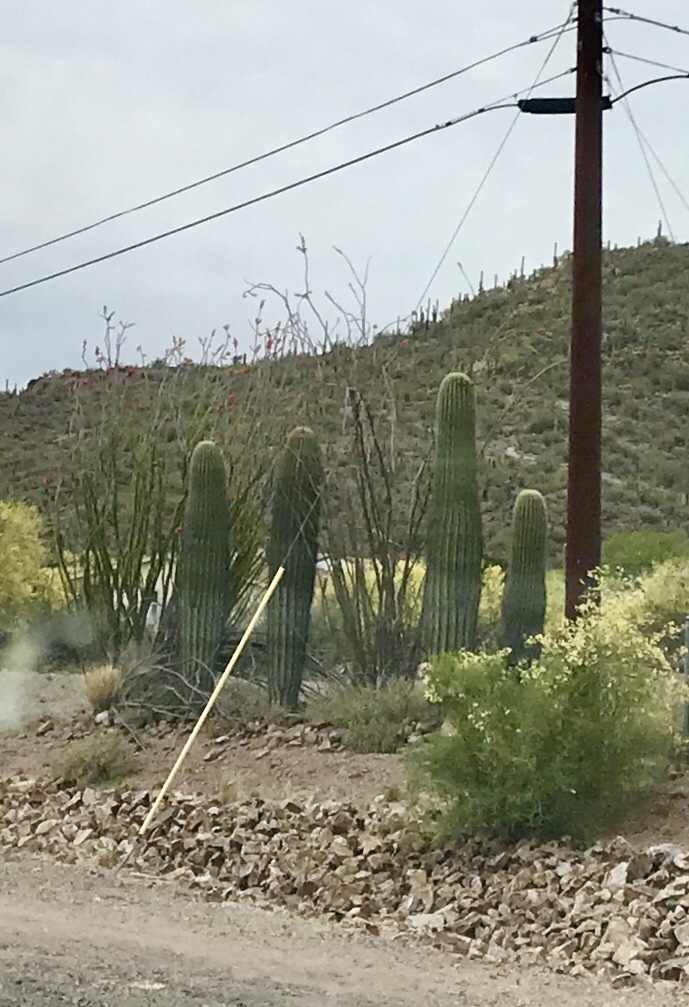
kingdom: Plantae
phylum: Tracheophyta
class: Magnoliopsida
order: Caryophyllales
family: Cactaceae
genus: Carnegiea
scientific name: Carnegiea gigantea
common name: Saguaro
